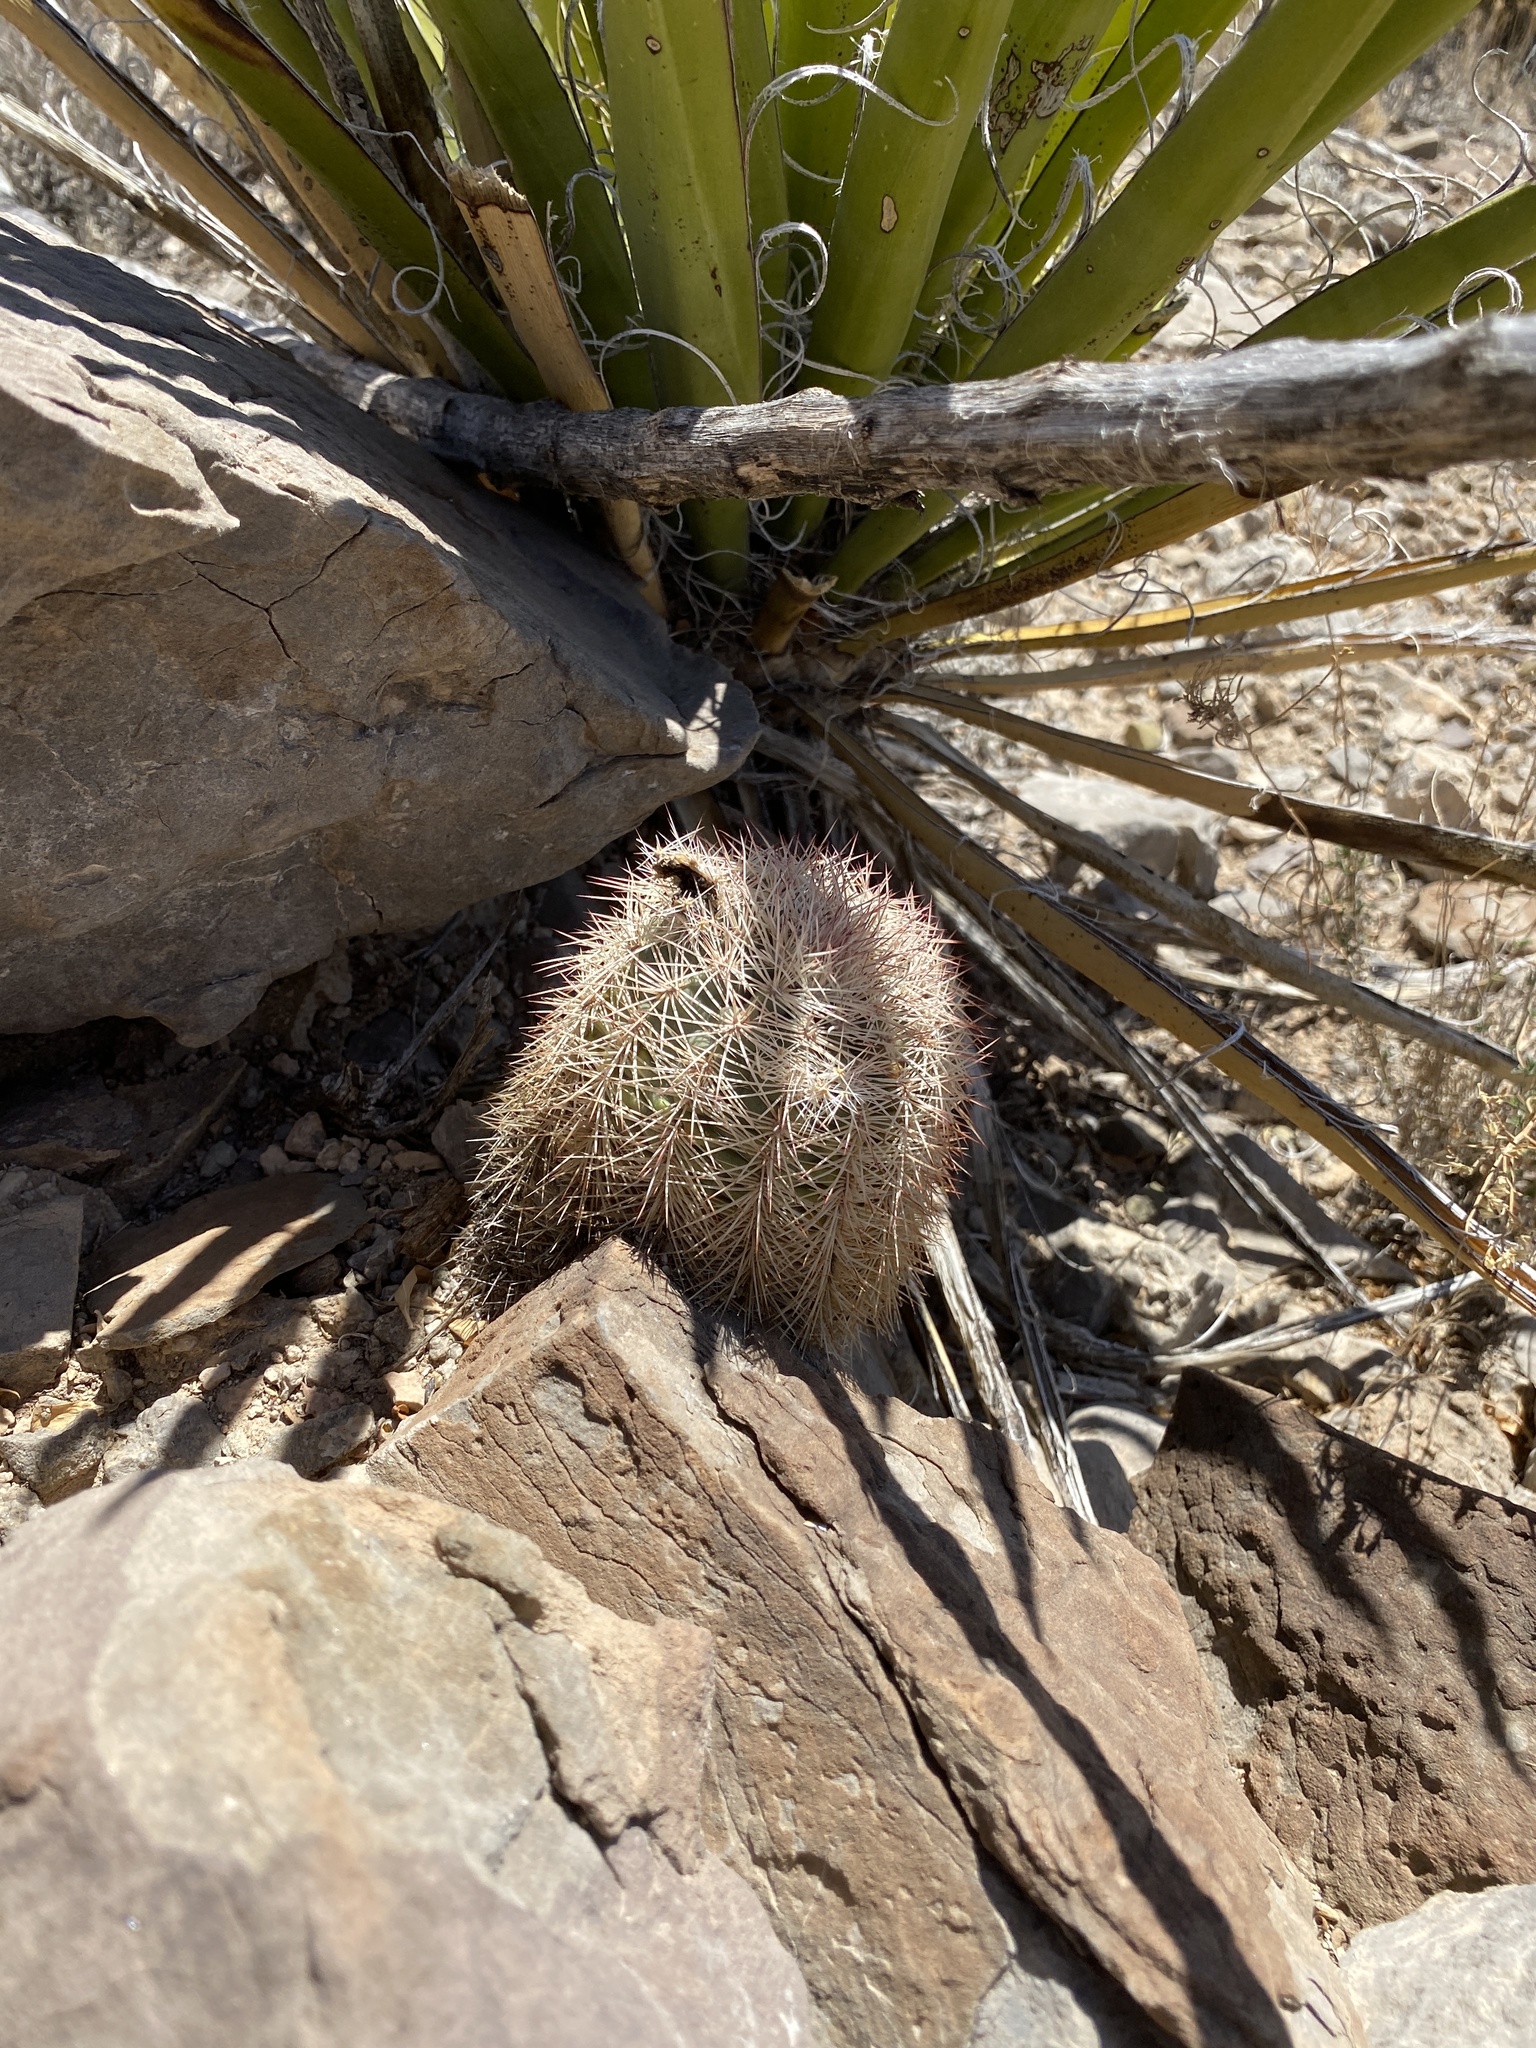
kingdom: Plantae
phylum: Tracheophyta
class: Magnoliopsida
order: Caryophyllales
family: Cactaceae
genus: Echinocereus
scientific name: Echinocereus dasyacanthus
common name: Spiny hedgehog cactus
